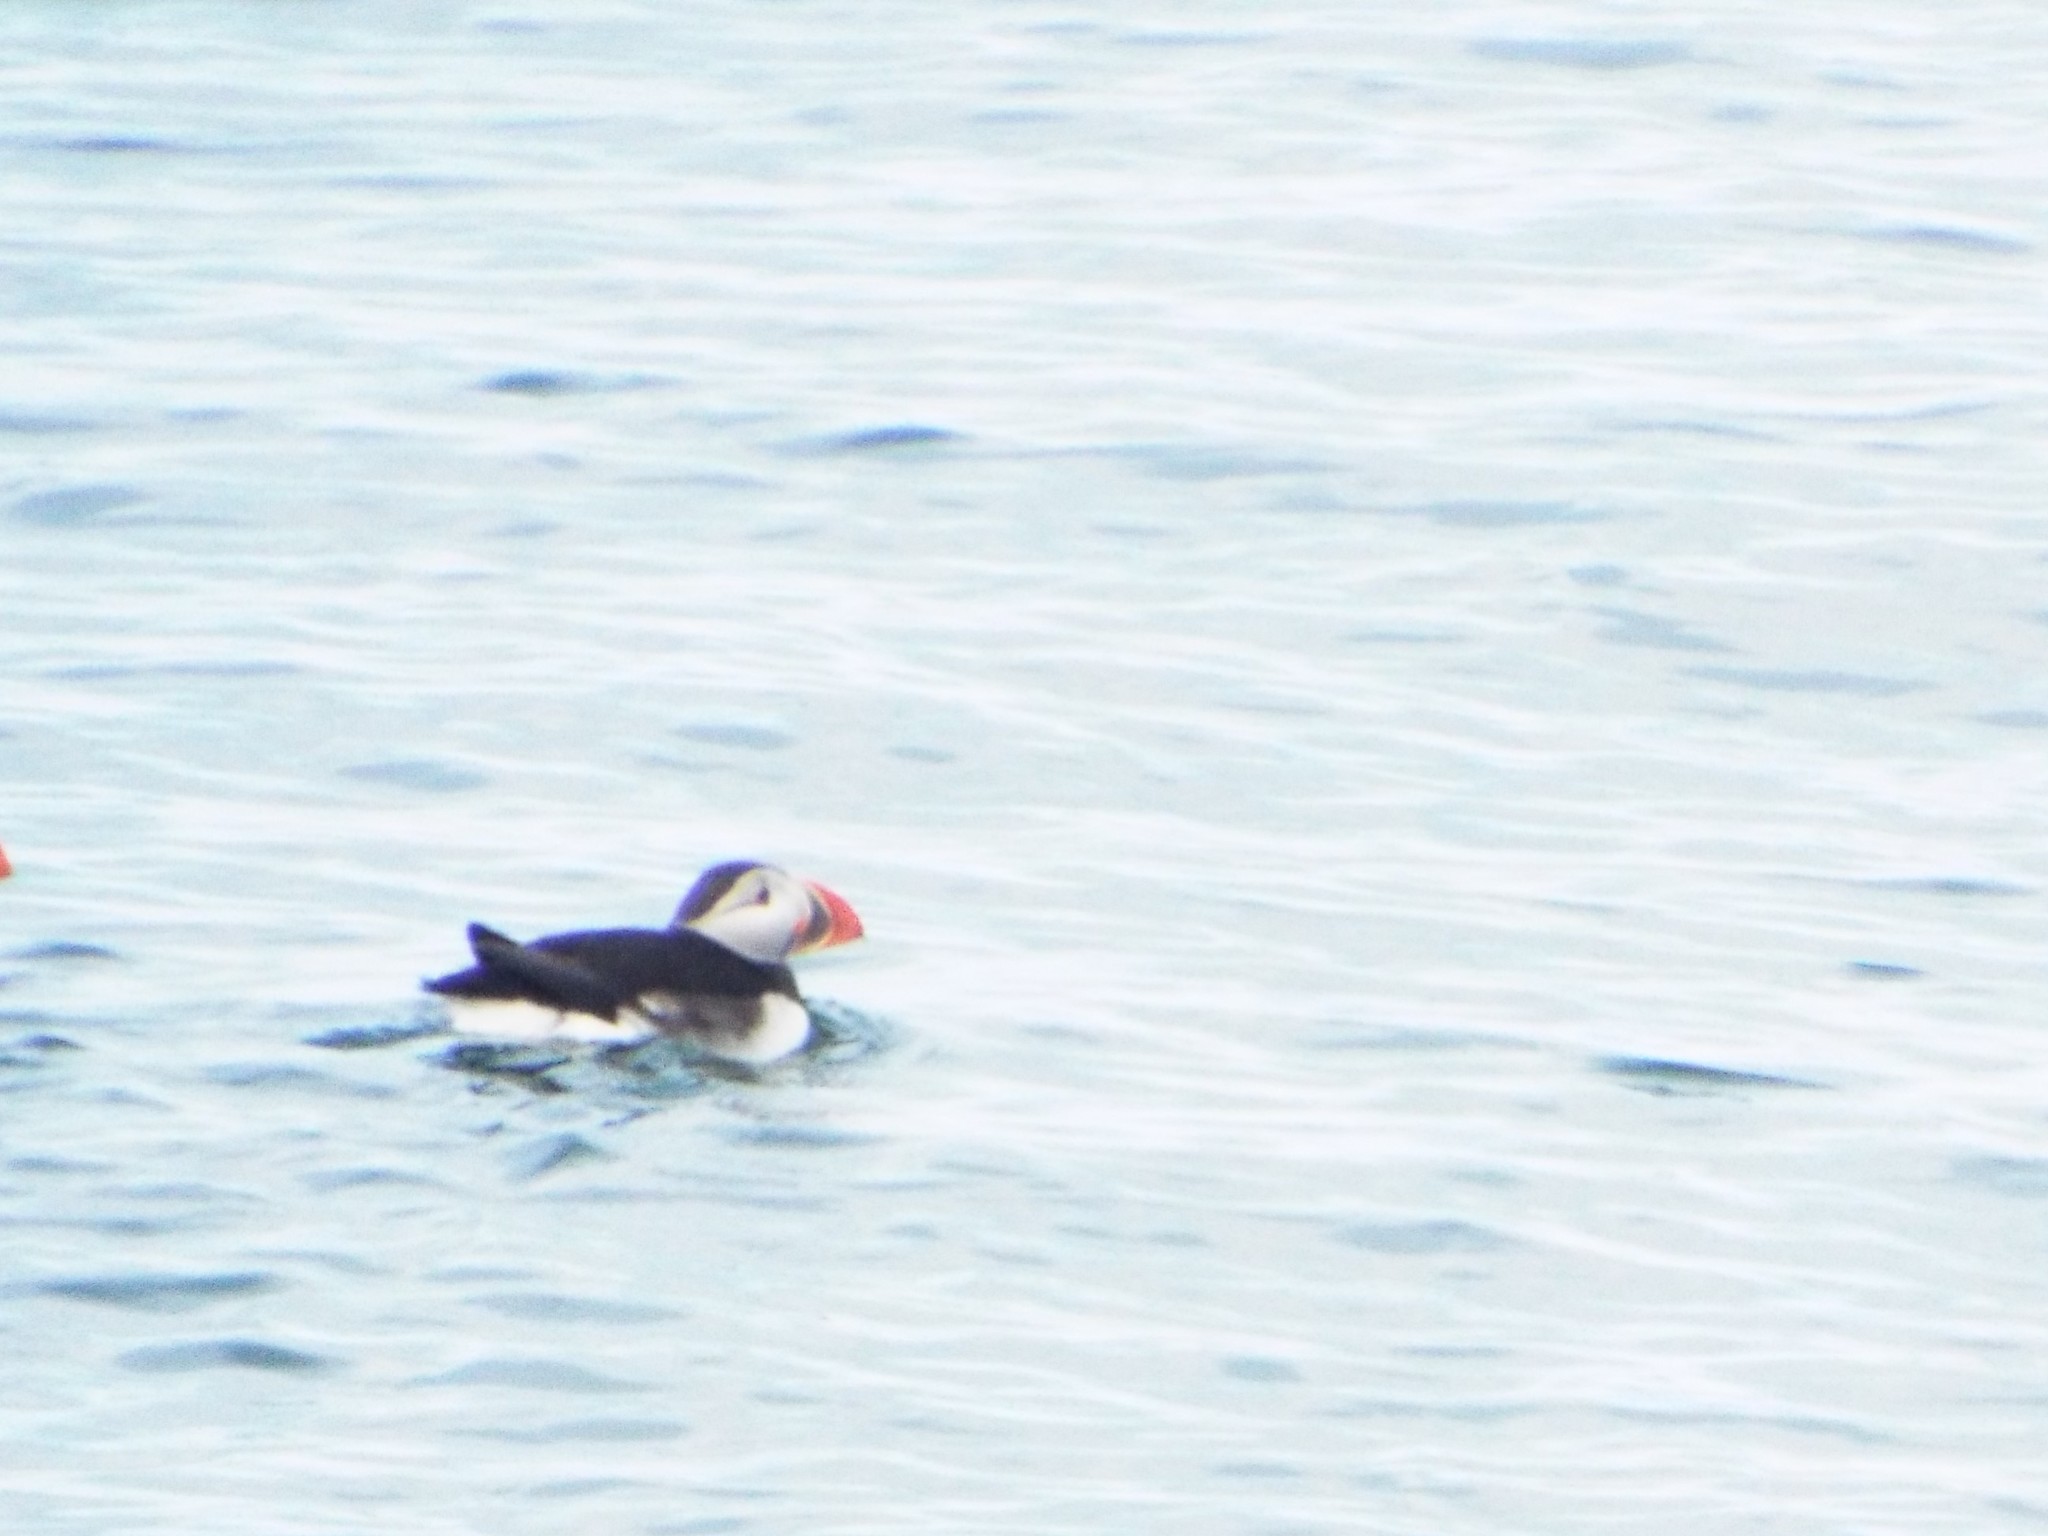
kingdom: Animalia
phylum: Chordata
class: Aves
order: Charadriiformes
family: Alcidae
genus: Fratercula
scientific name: Fratercula arctica
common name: Atlantic puffin
